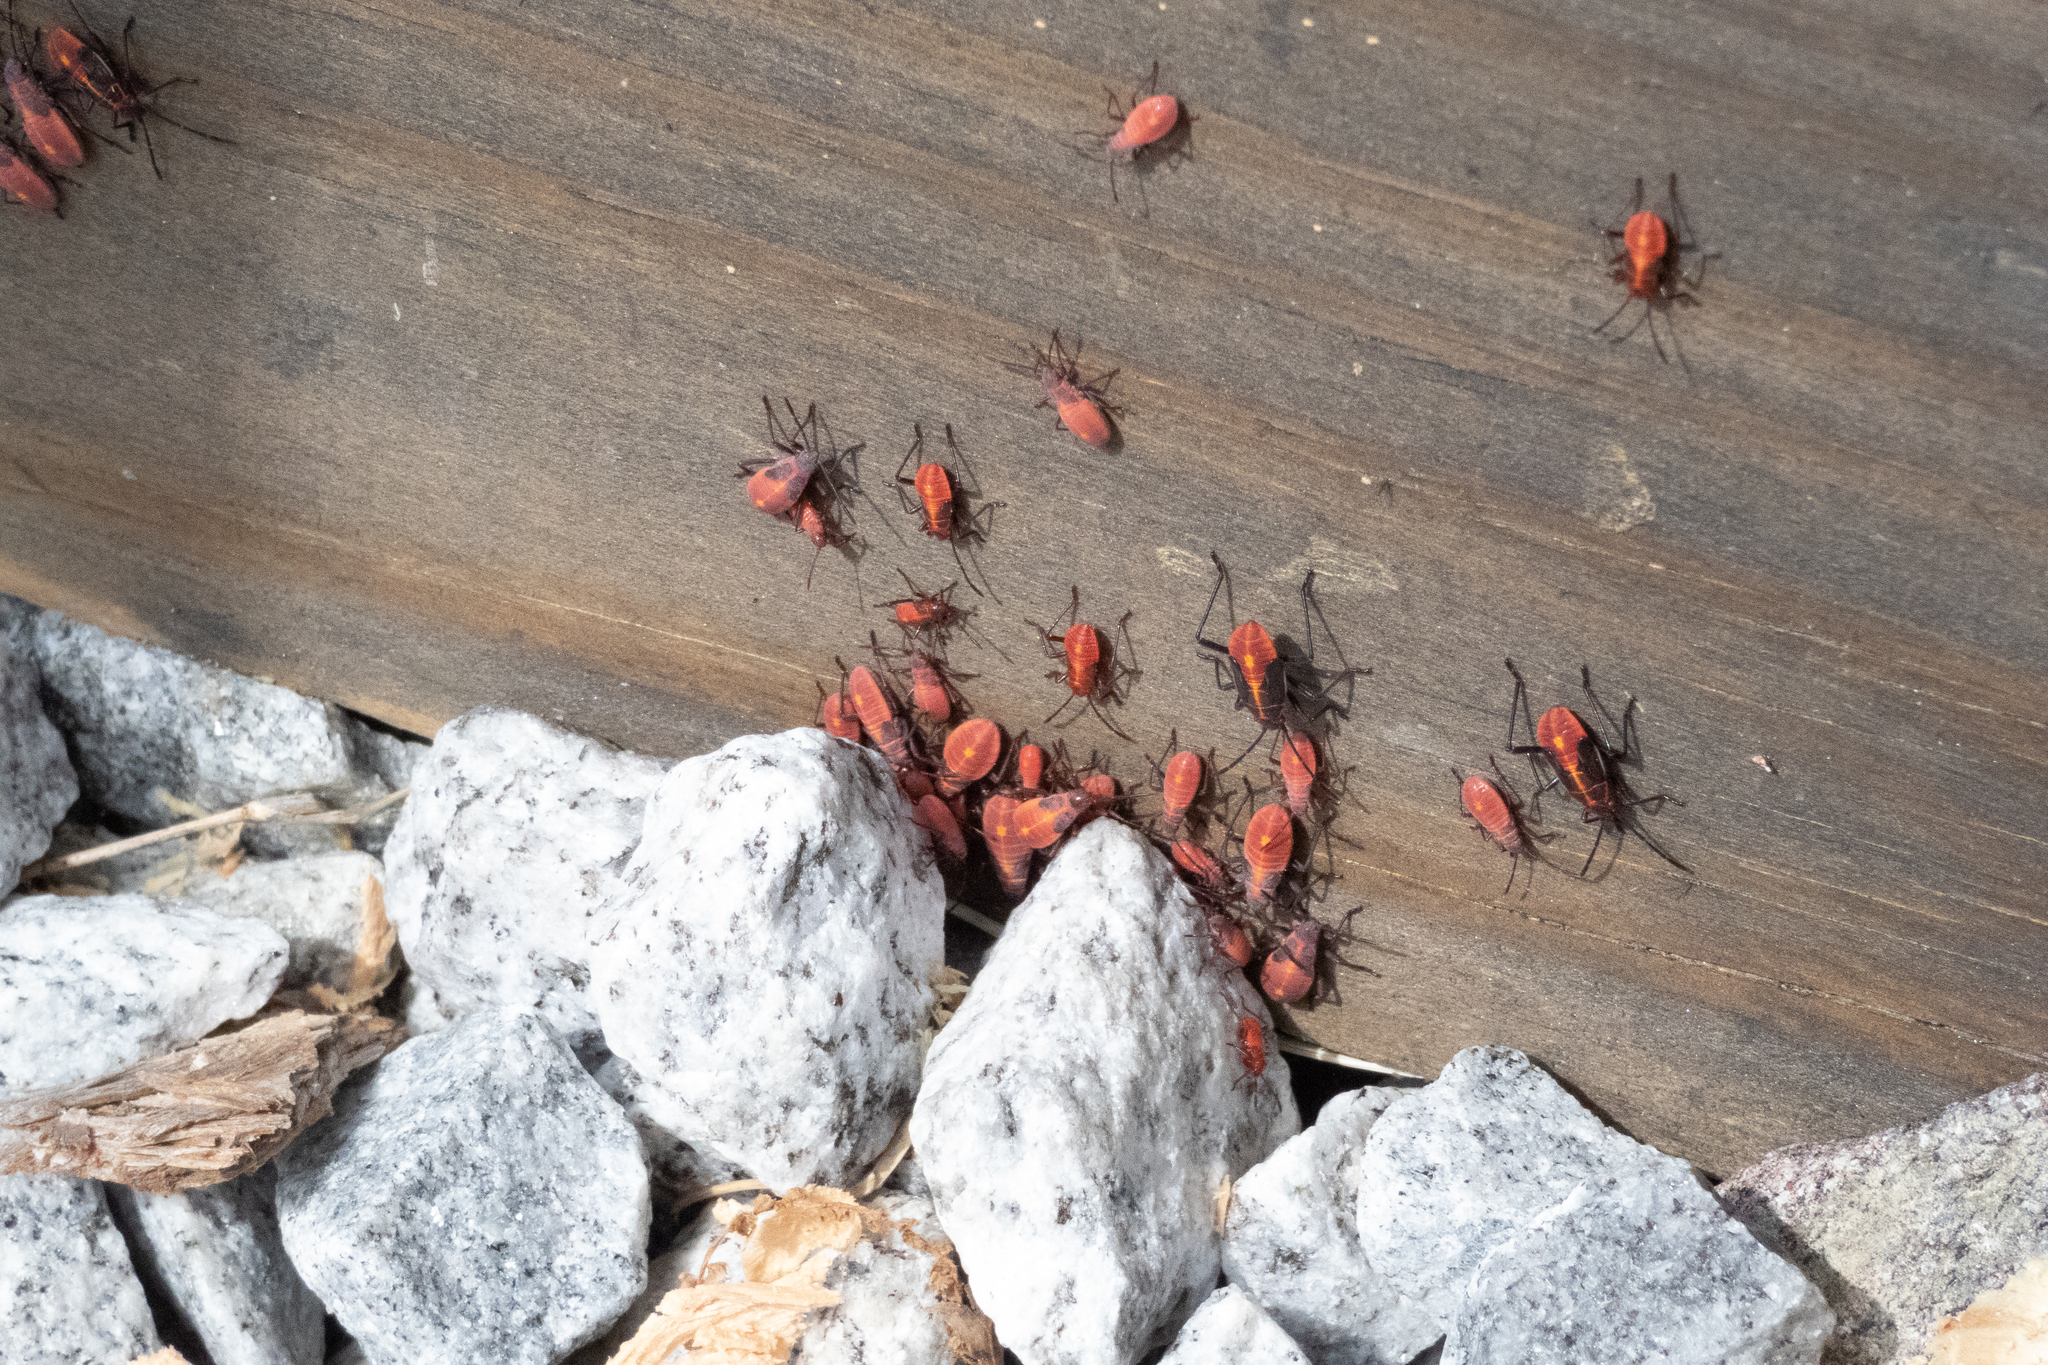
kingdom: Animalia
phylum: Arthropoda
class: Insecta
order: Hemiptera
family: Rhopalidae
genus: Boisea
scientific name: Boisea trivittata
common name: Boxelder bug
